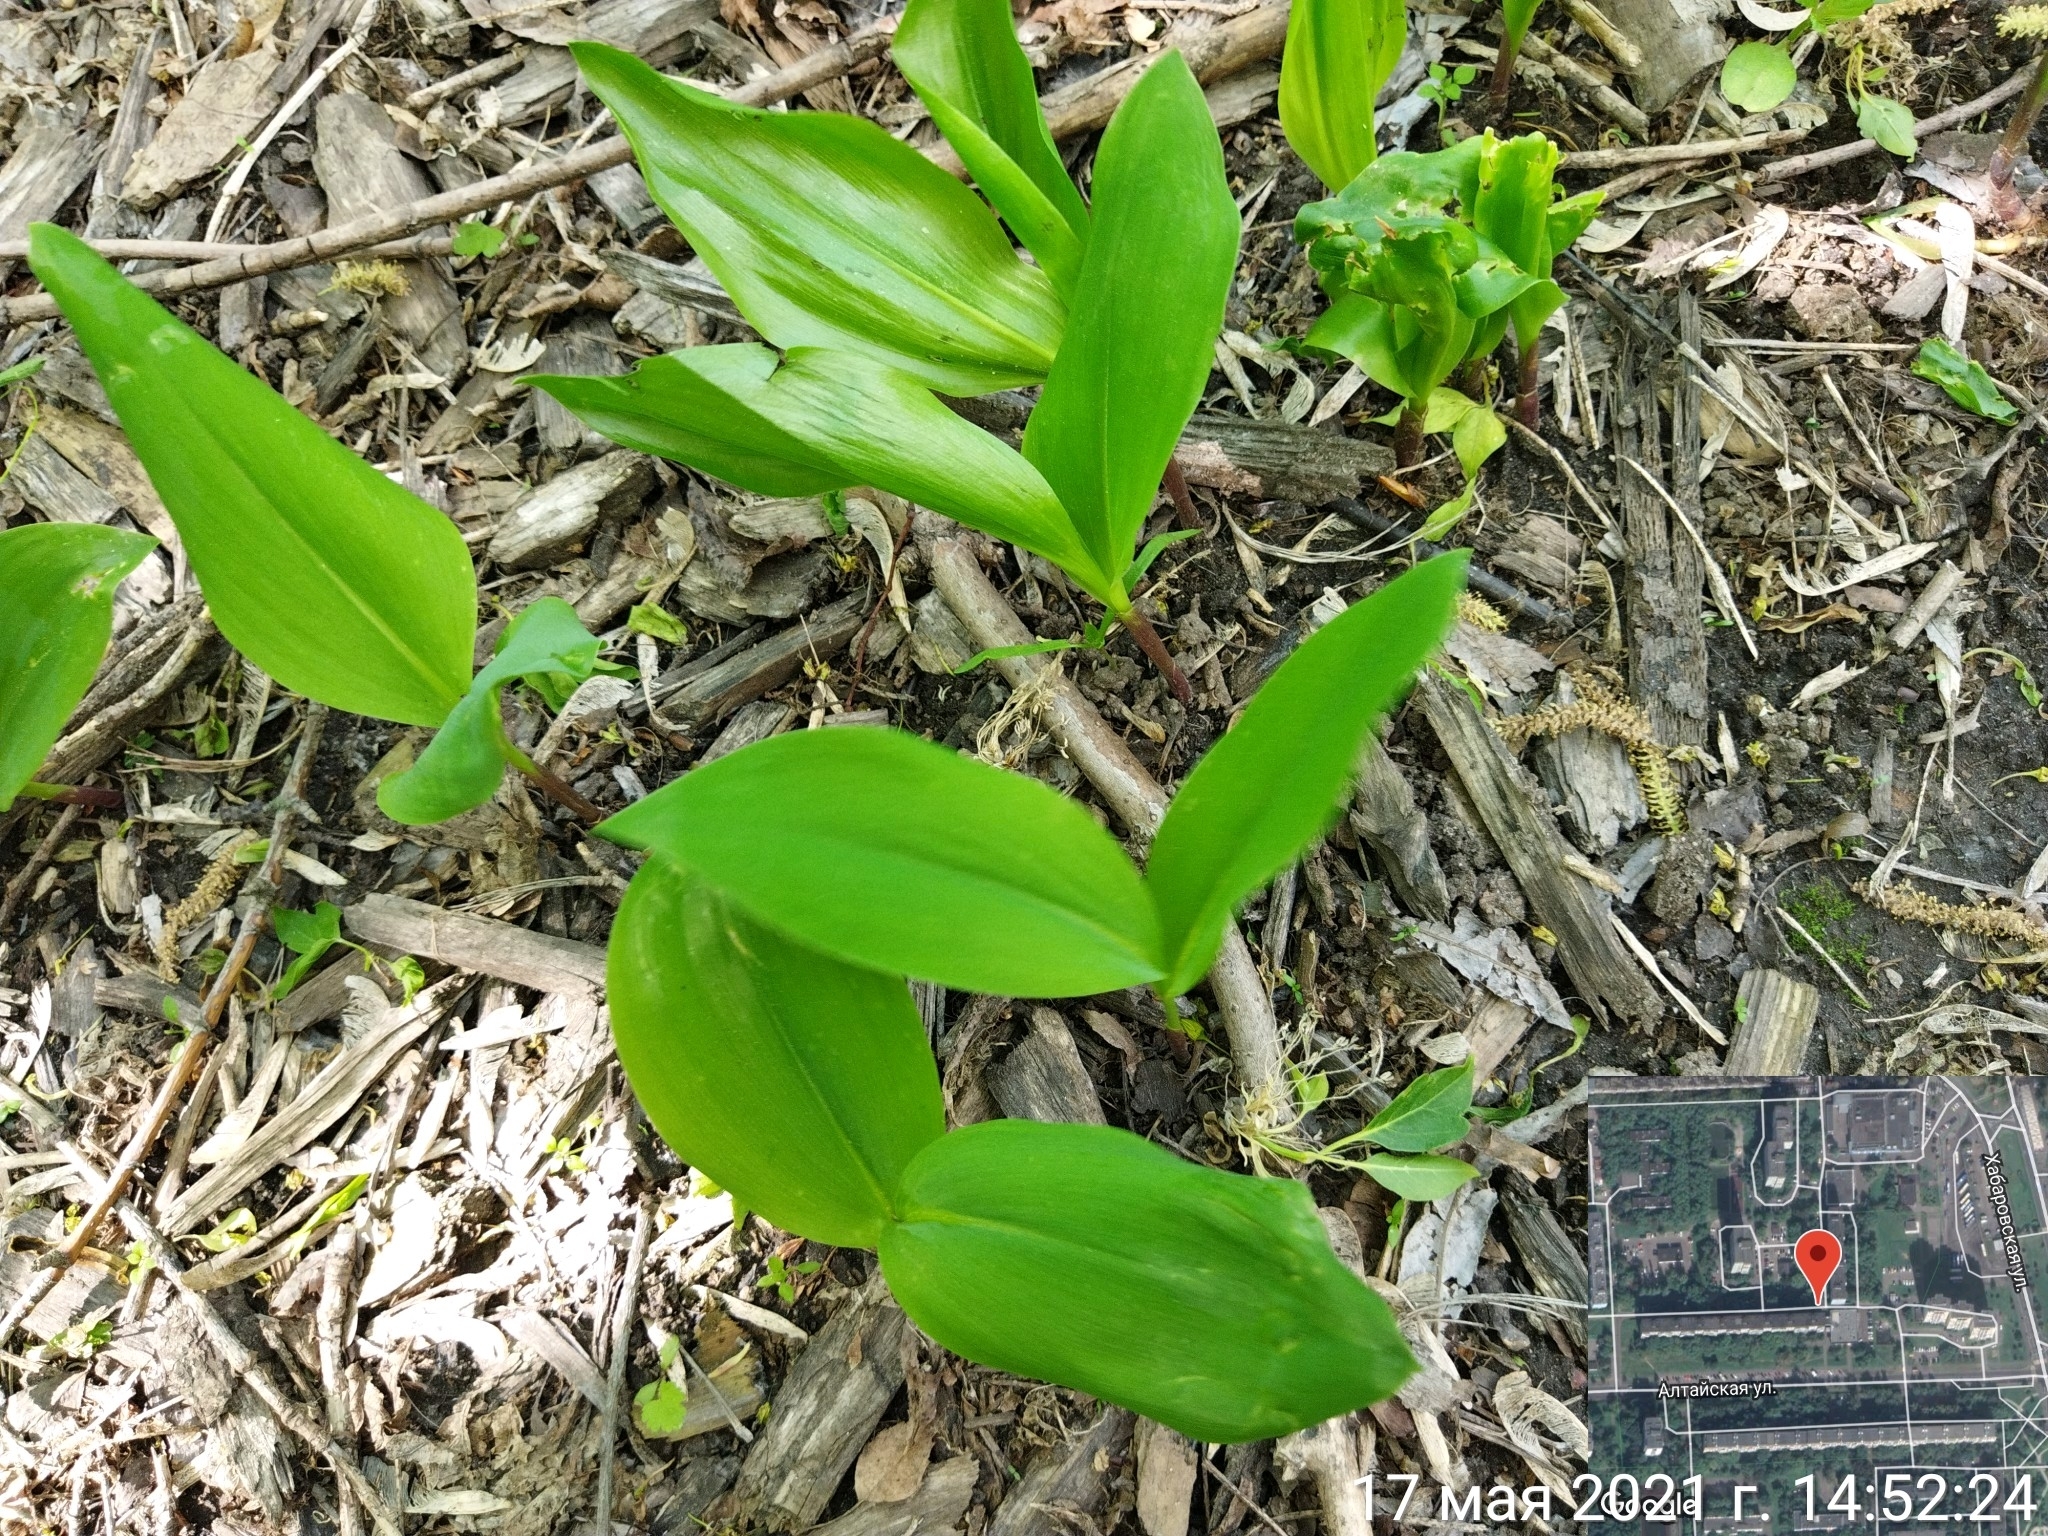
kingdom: Plantae
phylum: Tracheophyta
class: Liliopsida
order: Asparagales
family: Asparagaceae
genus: Convallaria
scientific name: Convallaria majalis
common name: Lily-of-the-valley
